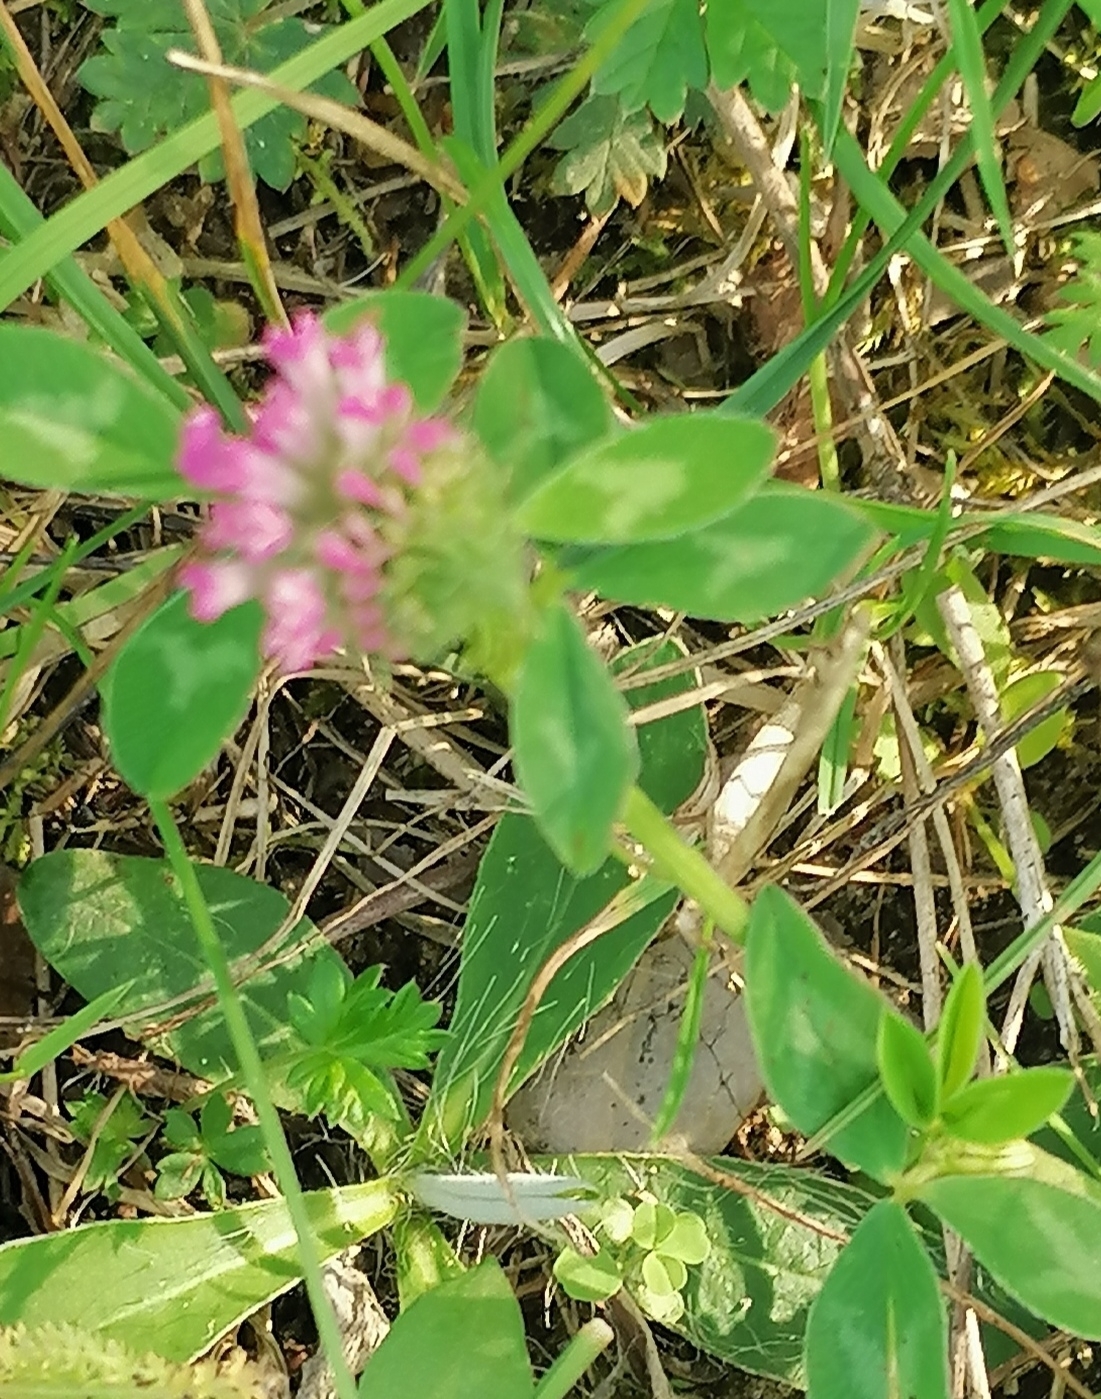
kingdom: Plantae
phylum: Tracheophyta
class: Magnoliopsida
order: Fabales
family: Fabaceae
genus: Trifolium
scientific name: Trifolium pratense
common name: Red clover
